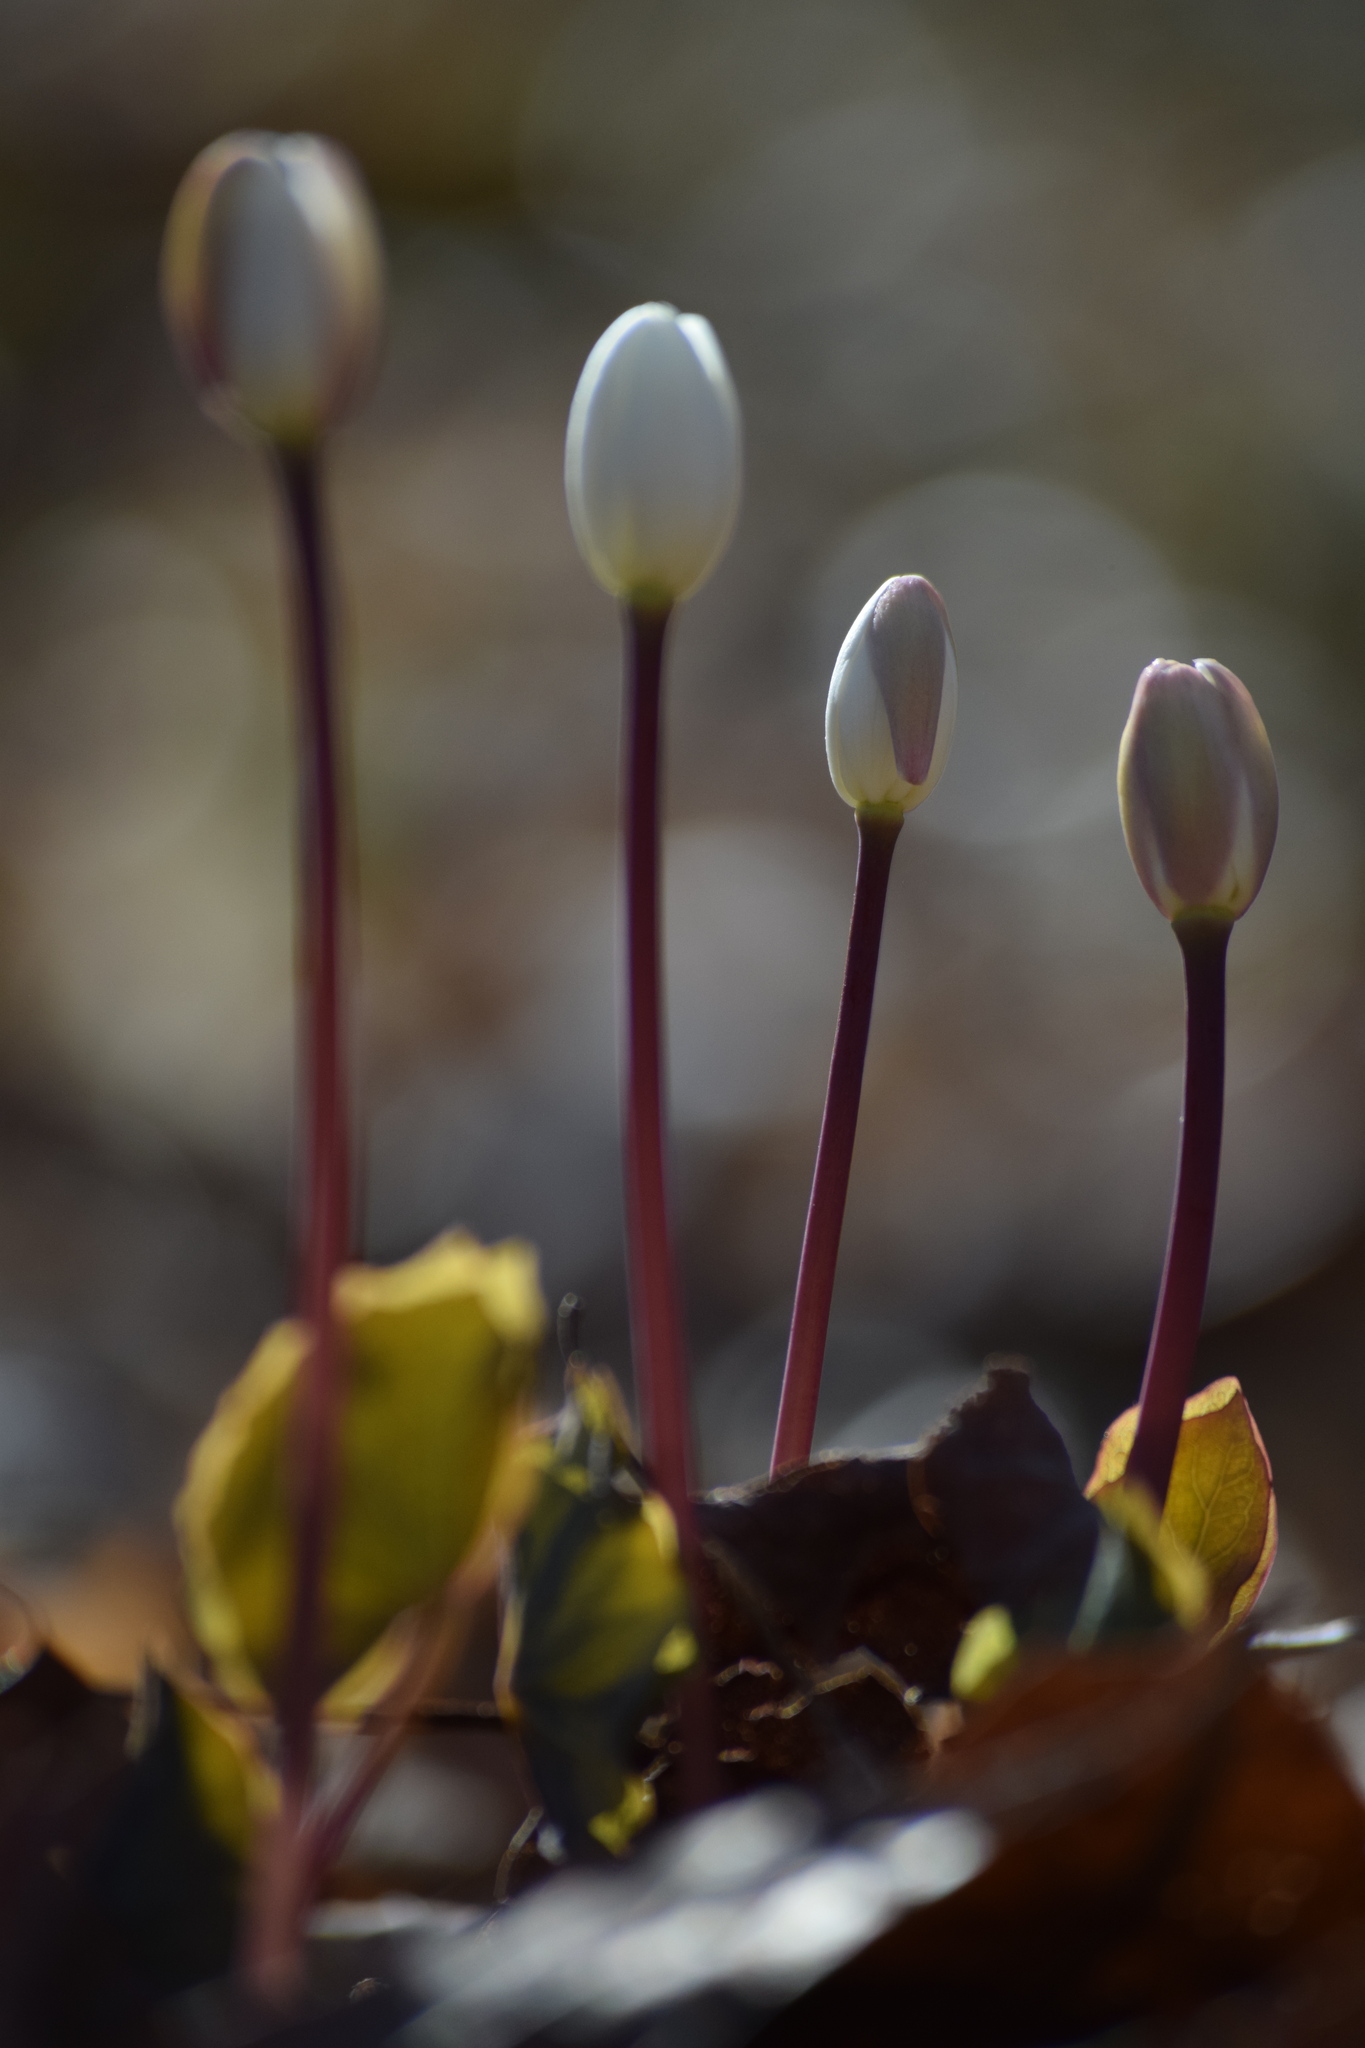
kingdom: Plantae
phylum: Tracheophyta
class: Magnoliopsida
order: Ranunculales
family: Berberidaceae
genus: Jeffersonia
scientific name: Jeffersonia diphylla
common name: Rheumatism-root
